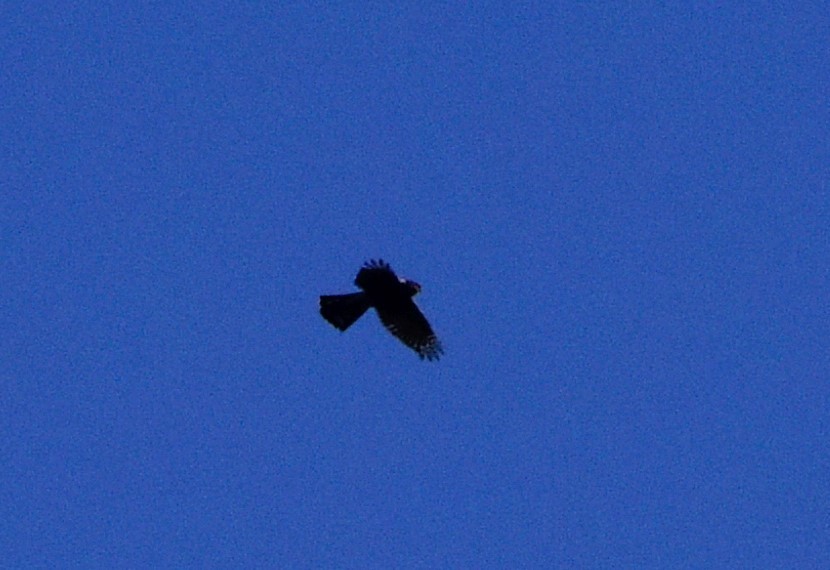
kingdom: Animalia
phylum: Chordata
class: Aves
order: Accipitriformes
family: Accipitridae
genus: Accipiter
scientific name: Accipiter nisus
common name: Eurasian sparrowhawk
